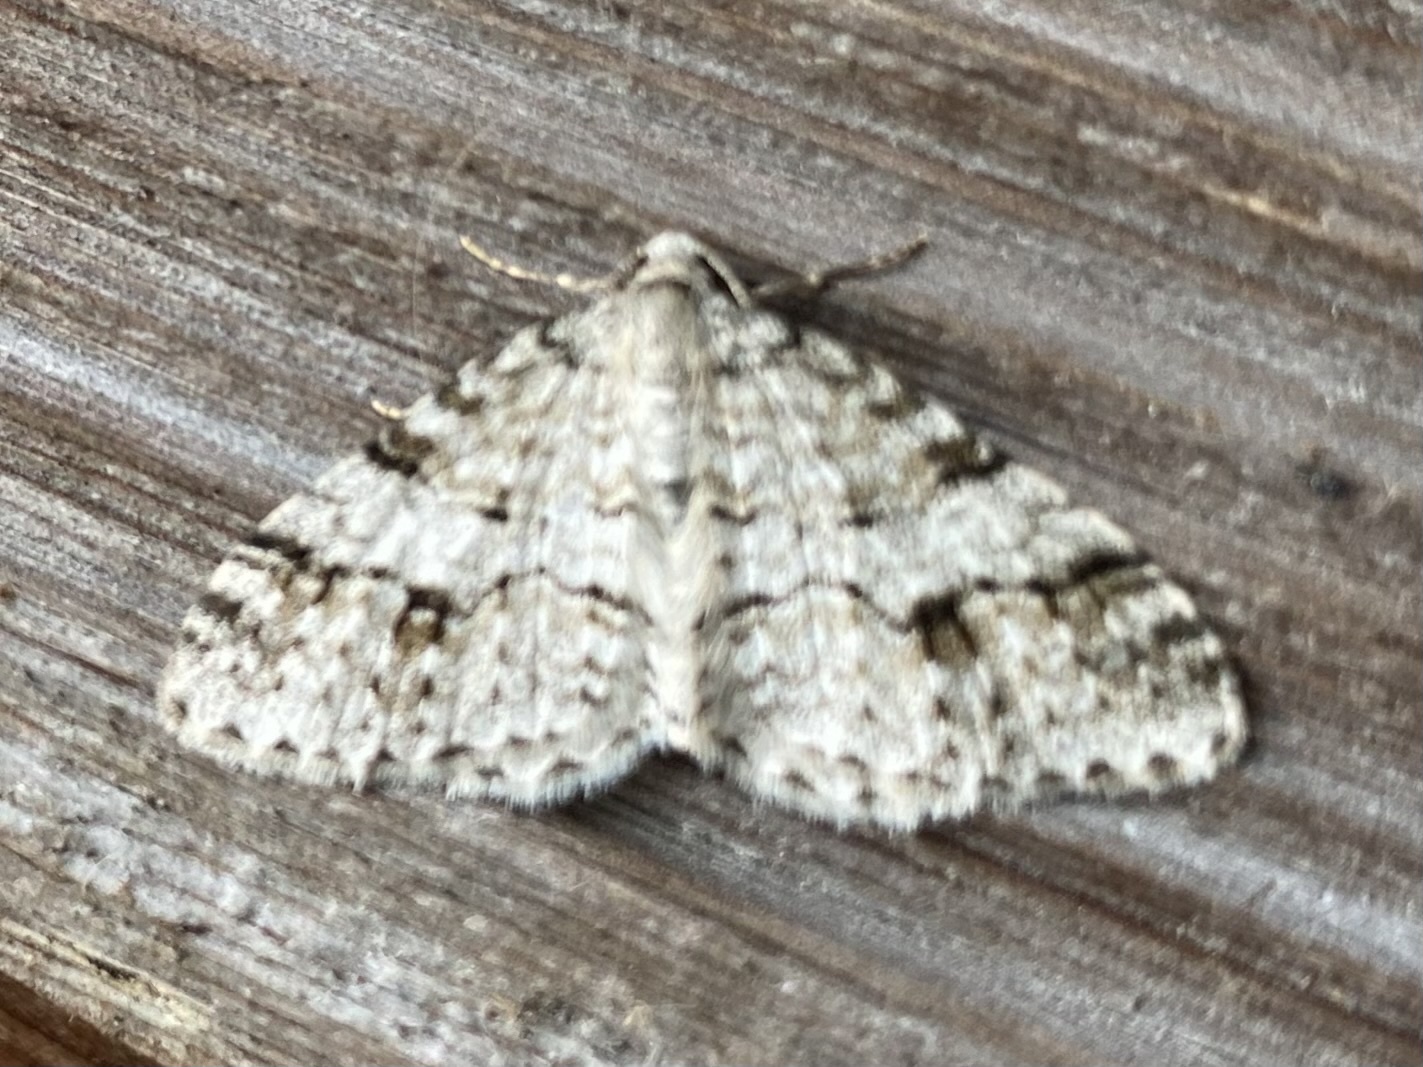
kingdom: Animalia
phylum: Arthropoda
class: Insecta
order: Lepidoptera
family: Geometridae
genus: Venusia
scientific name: Venusia cambrica
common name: Welsh wave
